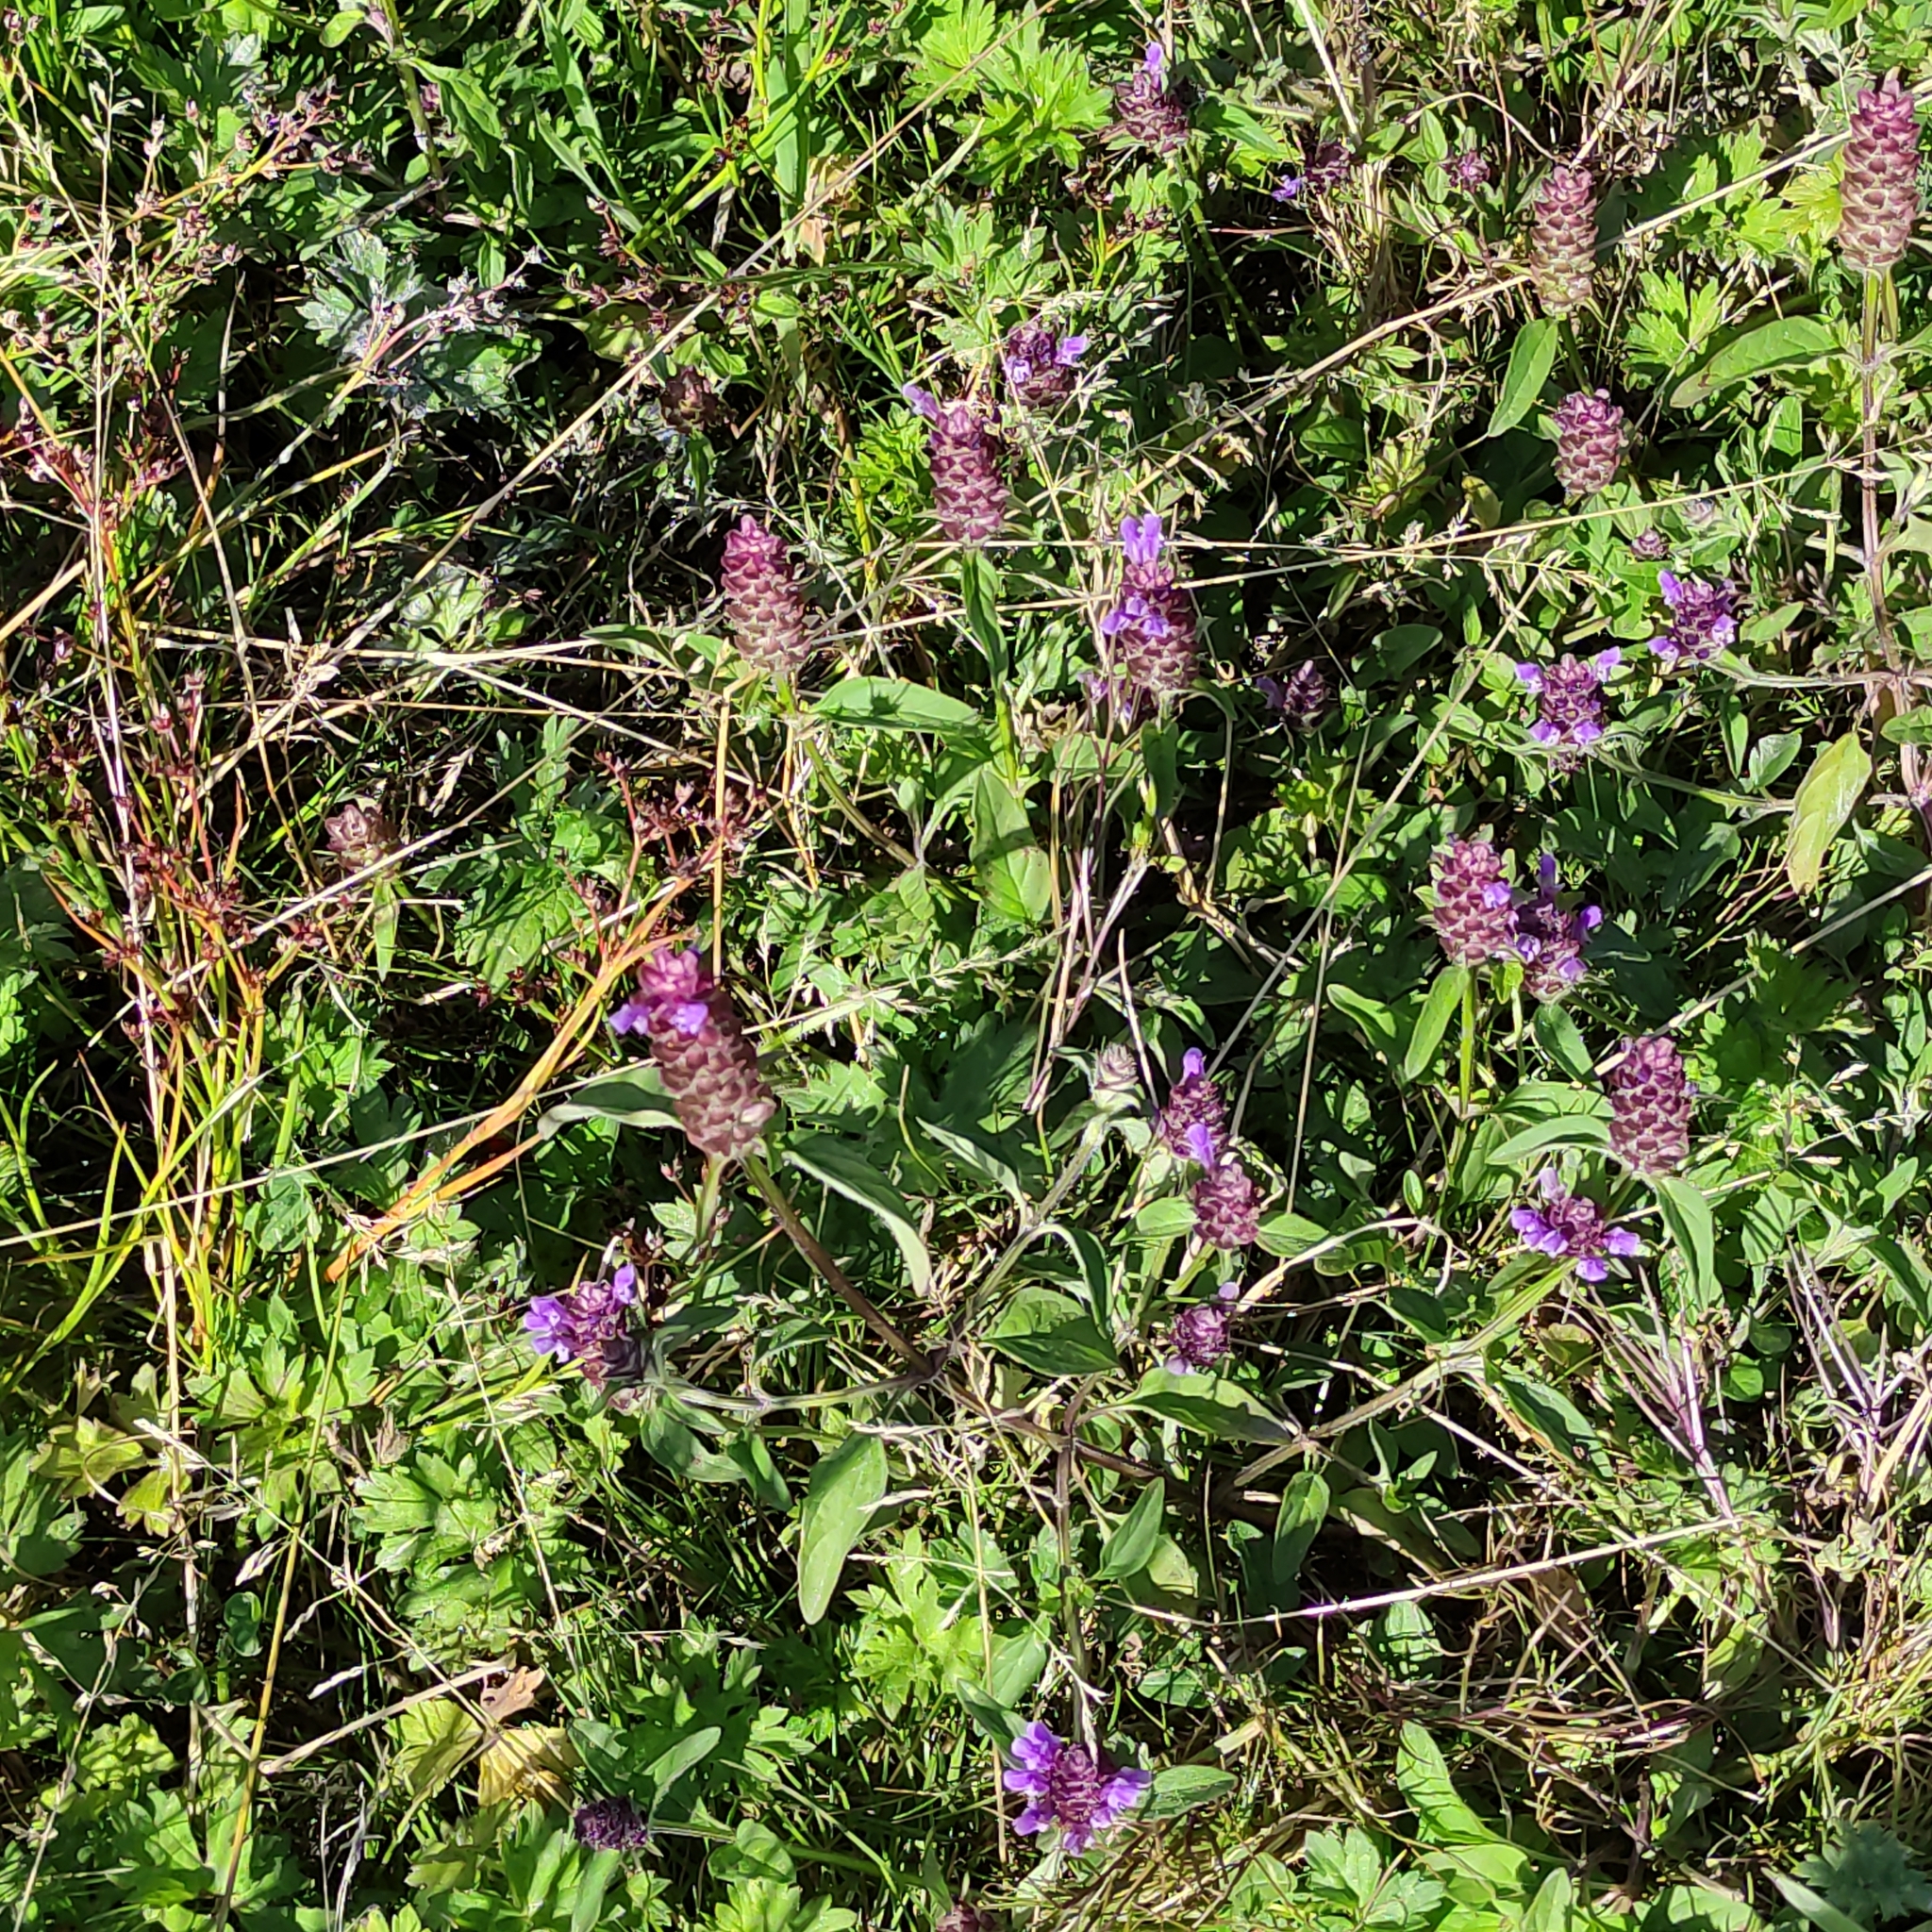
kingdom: Plantae
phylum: Tracheophyta
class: Magnoliopsida
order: Lamiales
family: Lamiaceae
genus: Prunella
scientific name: Prunella vulgaris
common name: Heal-all
